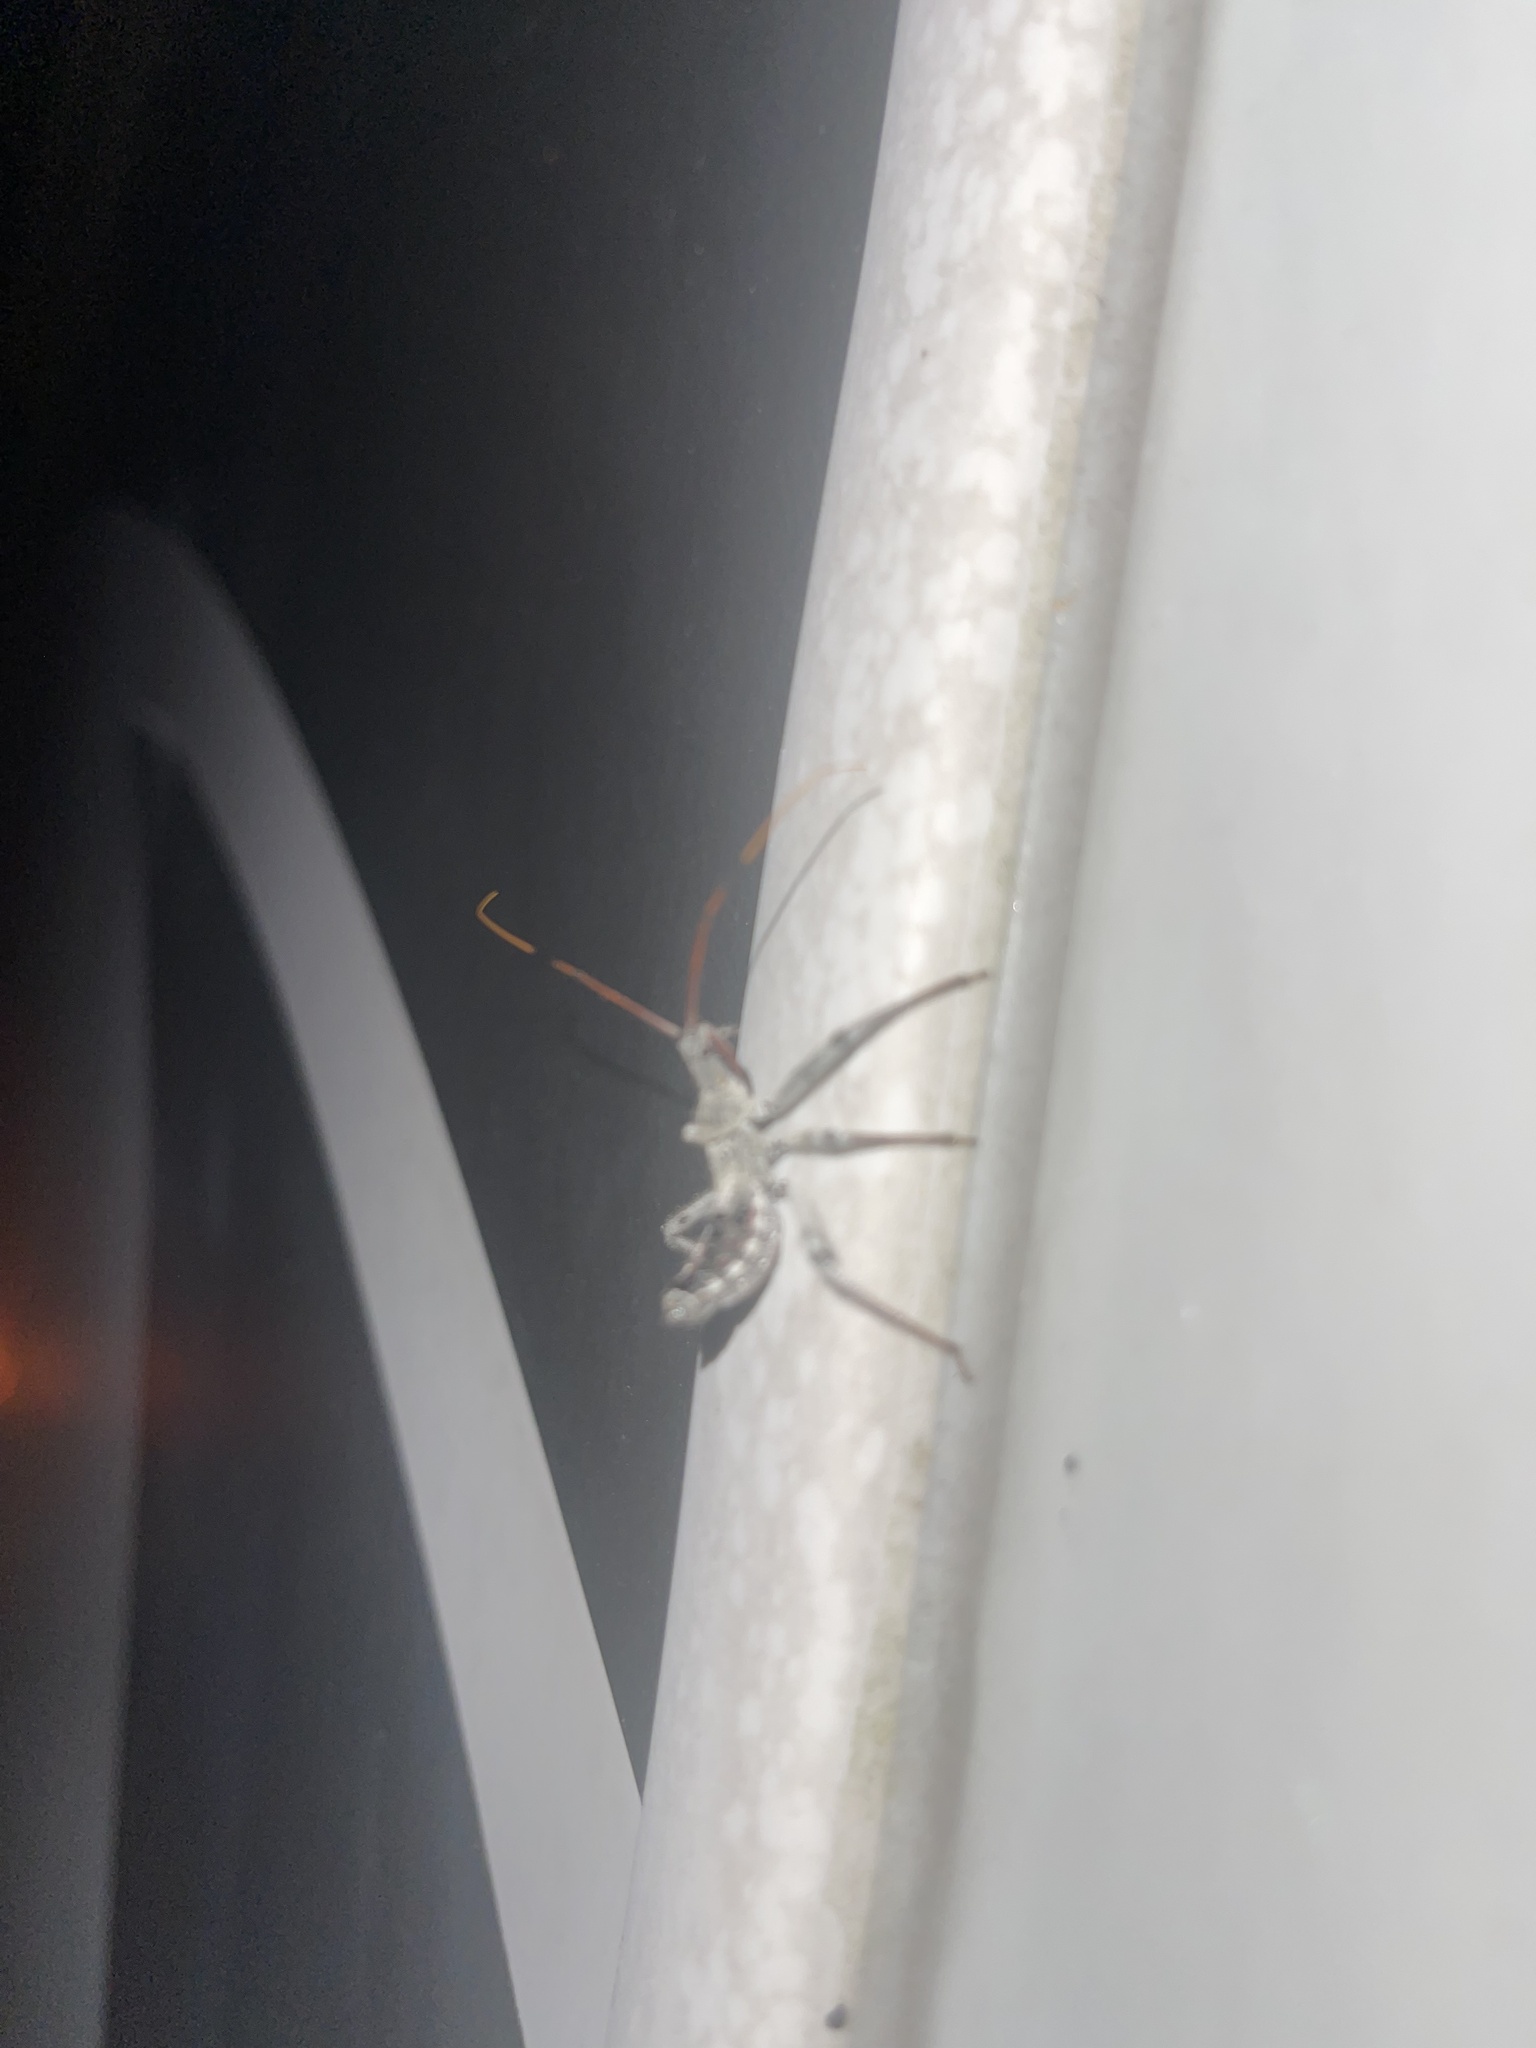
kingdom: Animalia
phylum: Arthropoda
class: Insecta
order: Hemiptera
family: Reduviidae
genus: Arilus
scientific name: Arilus cristatus
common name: North american wheel bug
